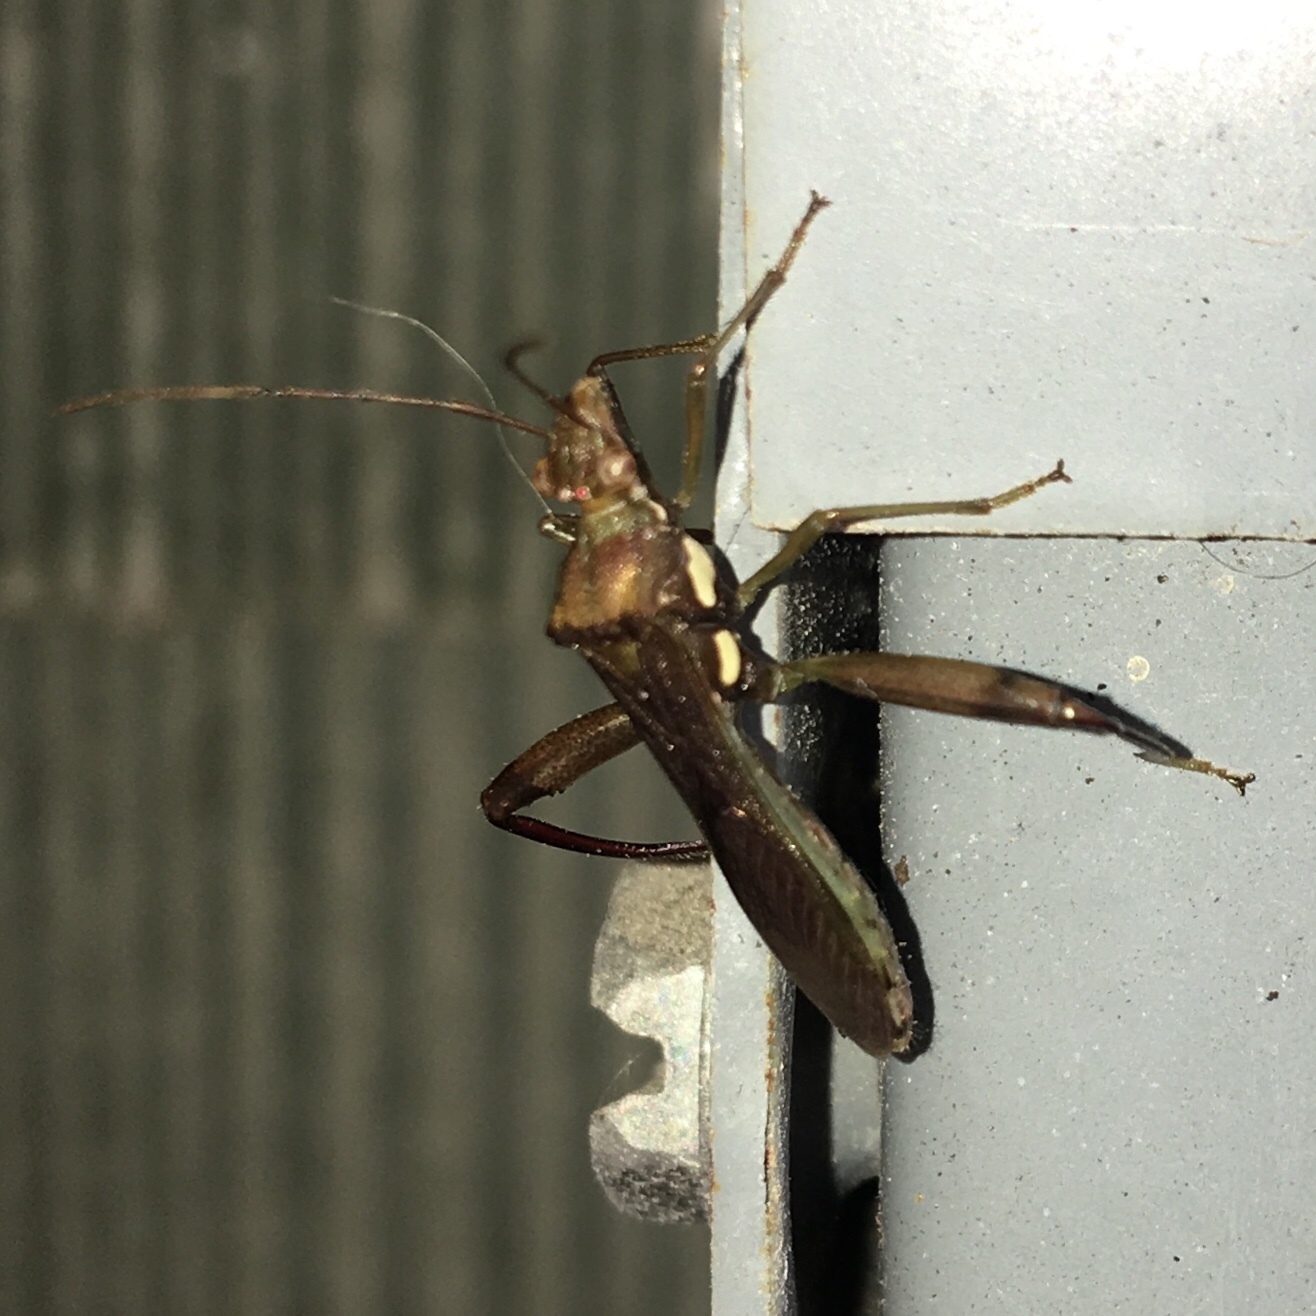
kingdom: Animalia
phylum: Arthropoda
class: Insecta
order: Hemiptera
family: Alydidae
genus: Hyalymenus
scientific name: Hyalymenus tarsatus
